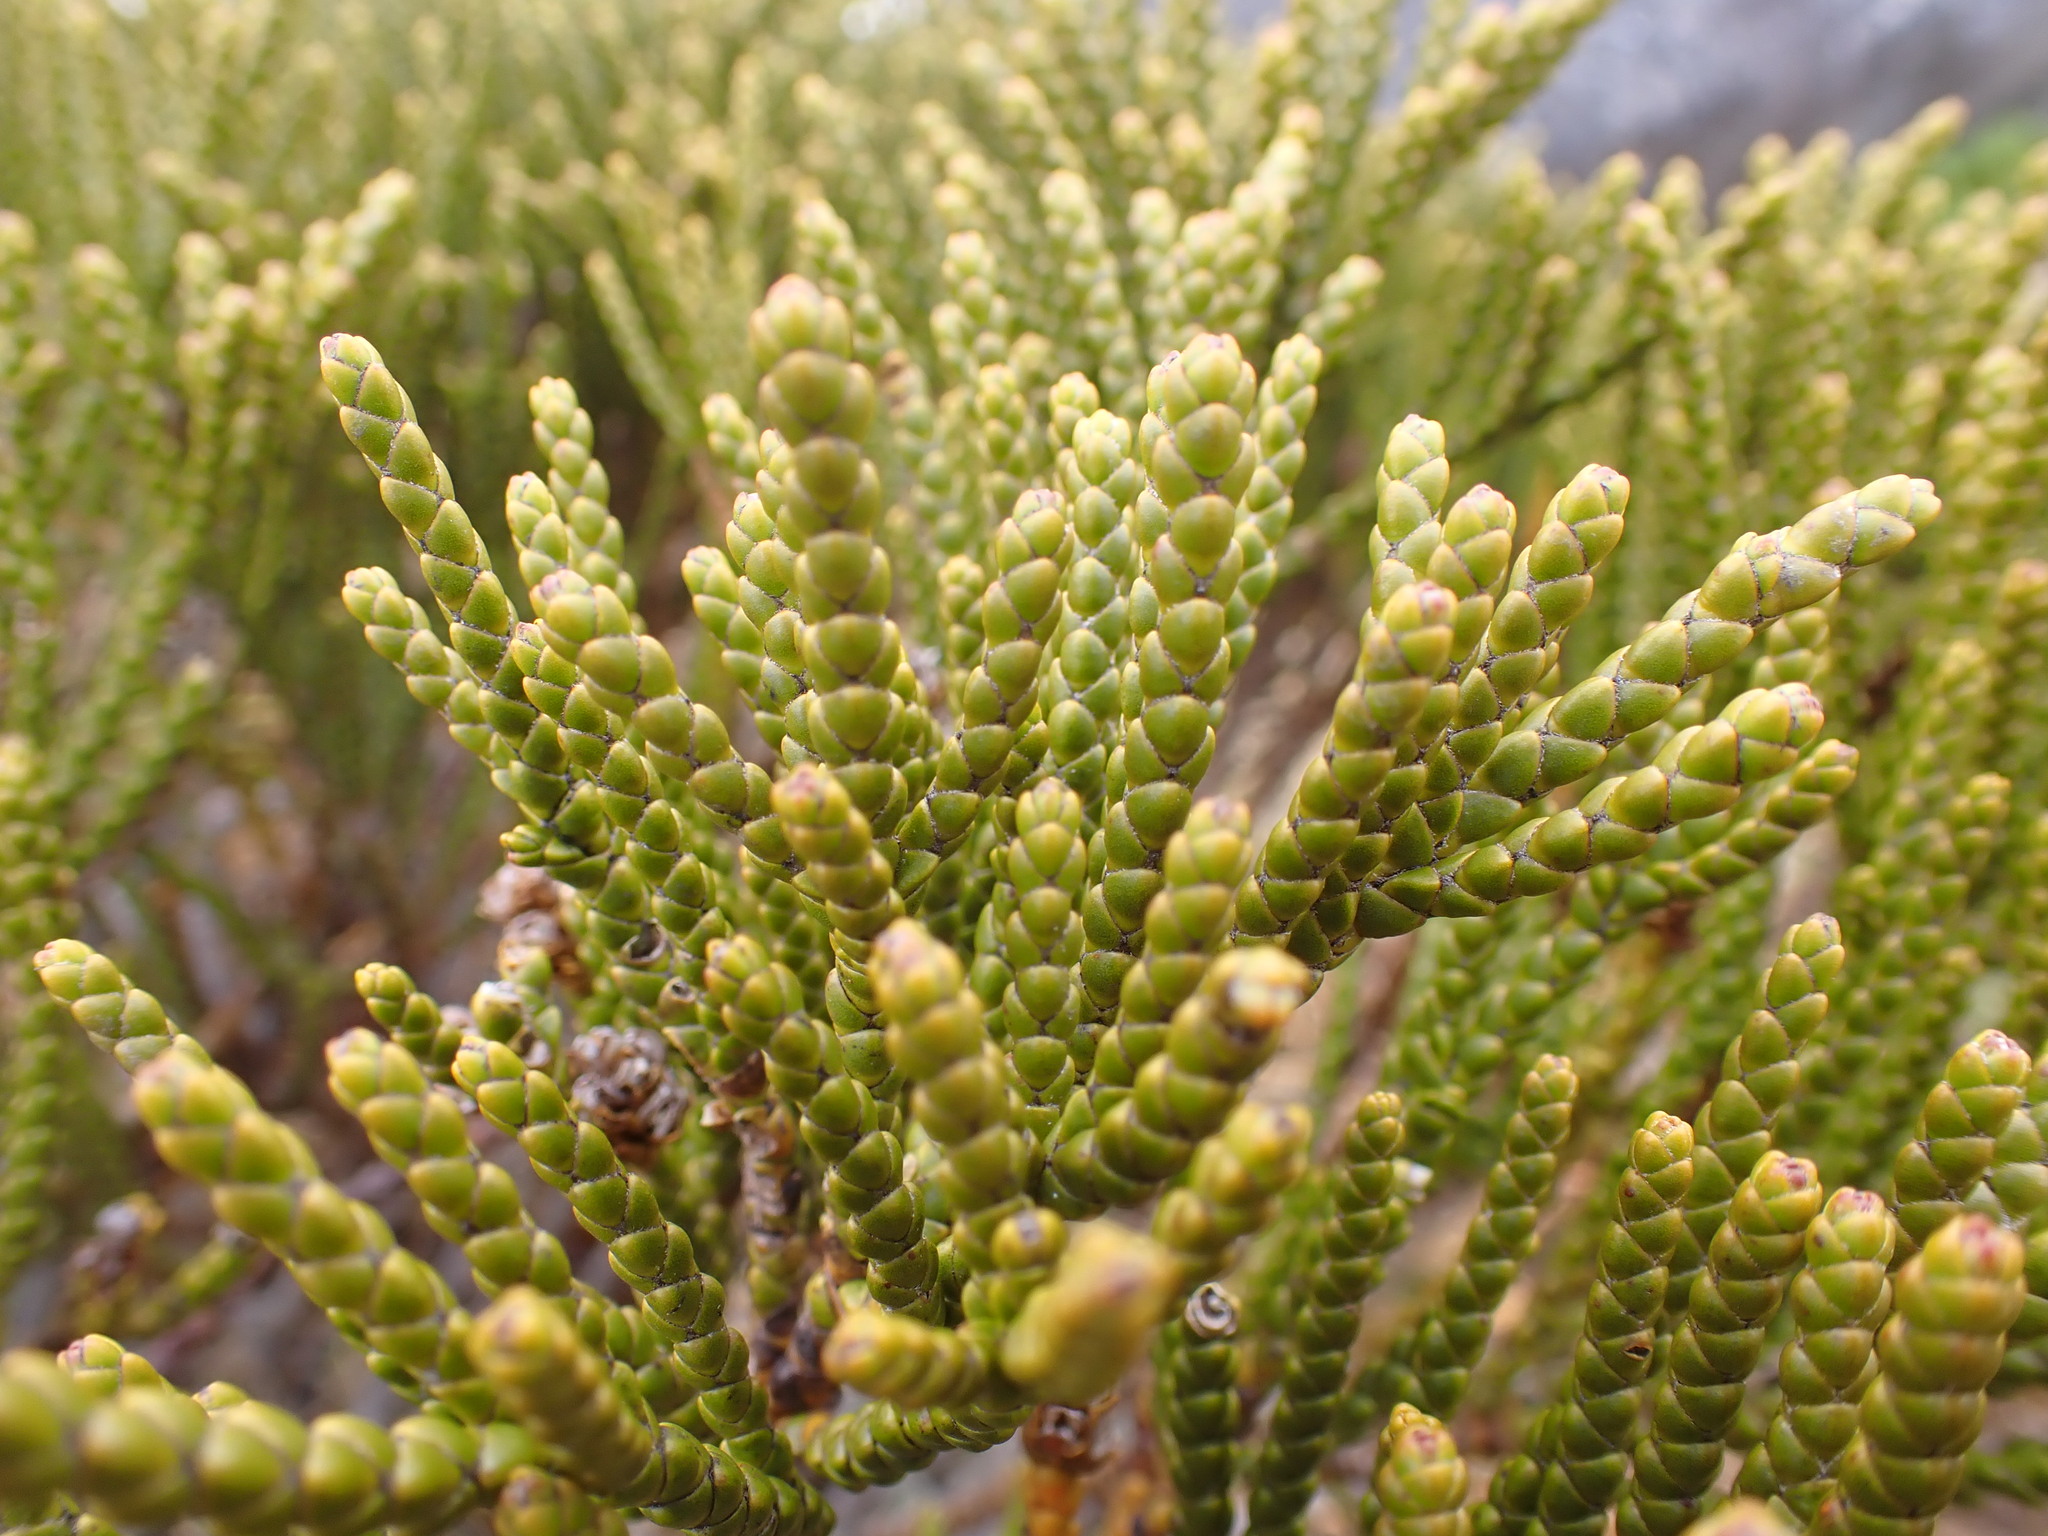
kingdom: Plantae
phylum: Tracheophyta
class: Magnoliopsida
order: Lamiales
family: Plantaginaceae
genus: Veronica
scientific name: Veronica hectorii
